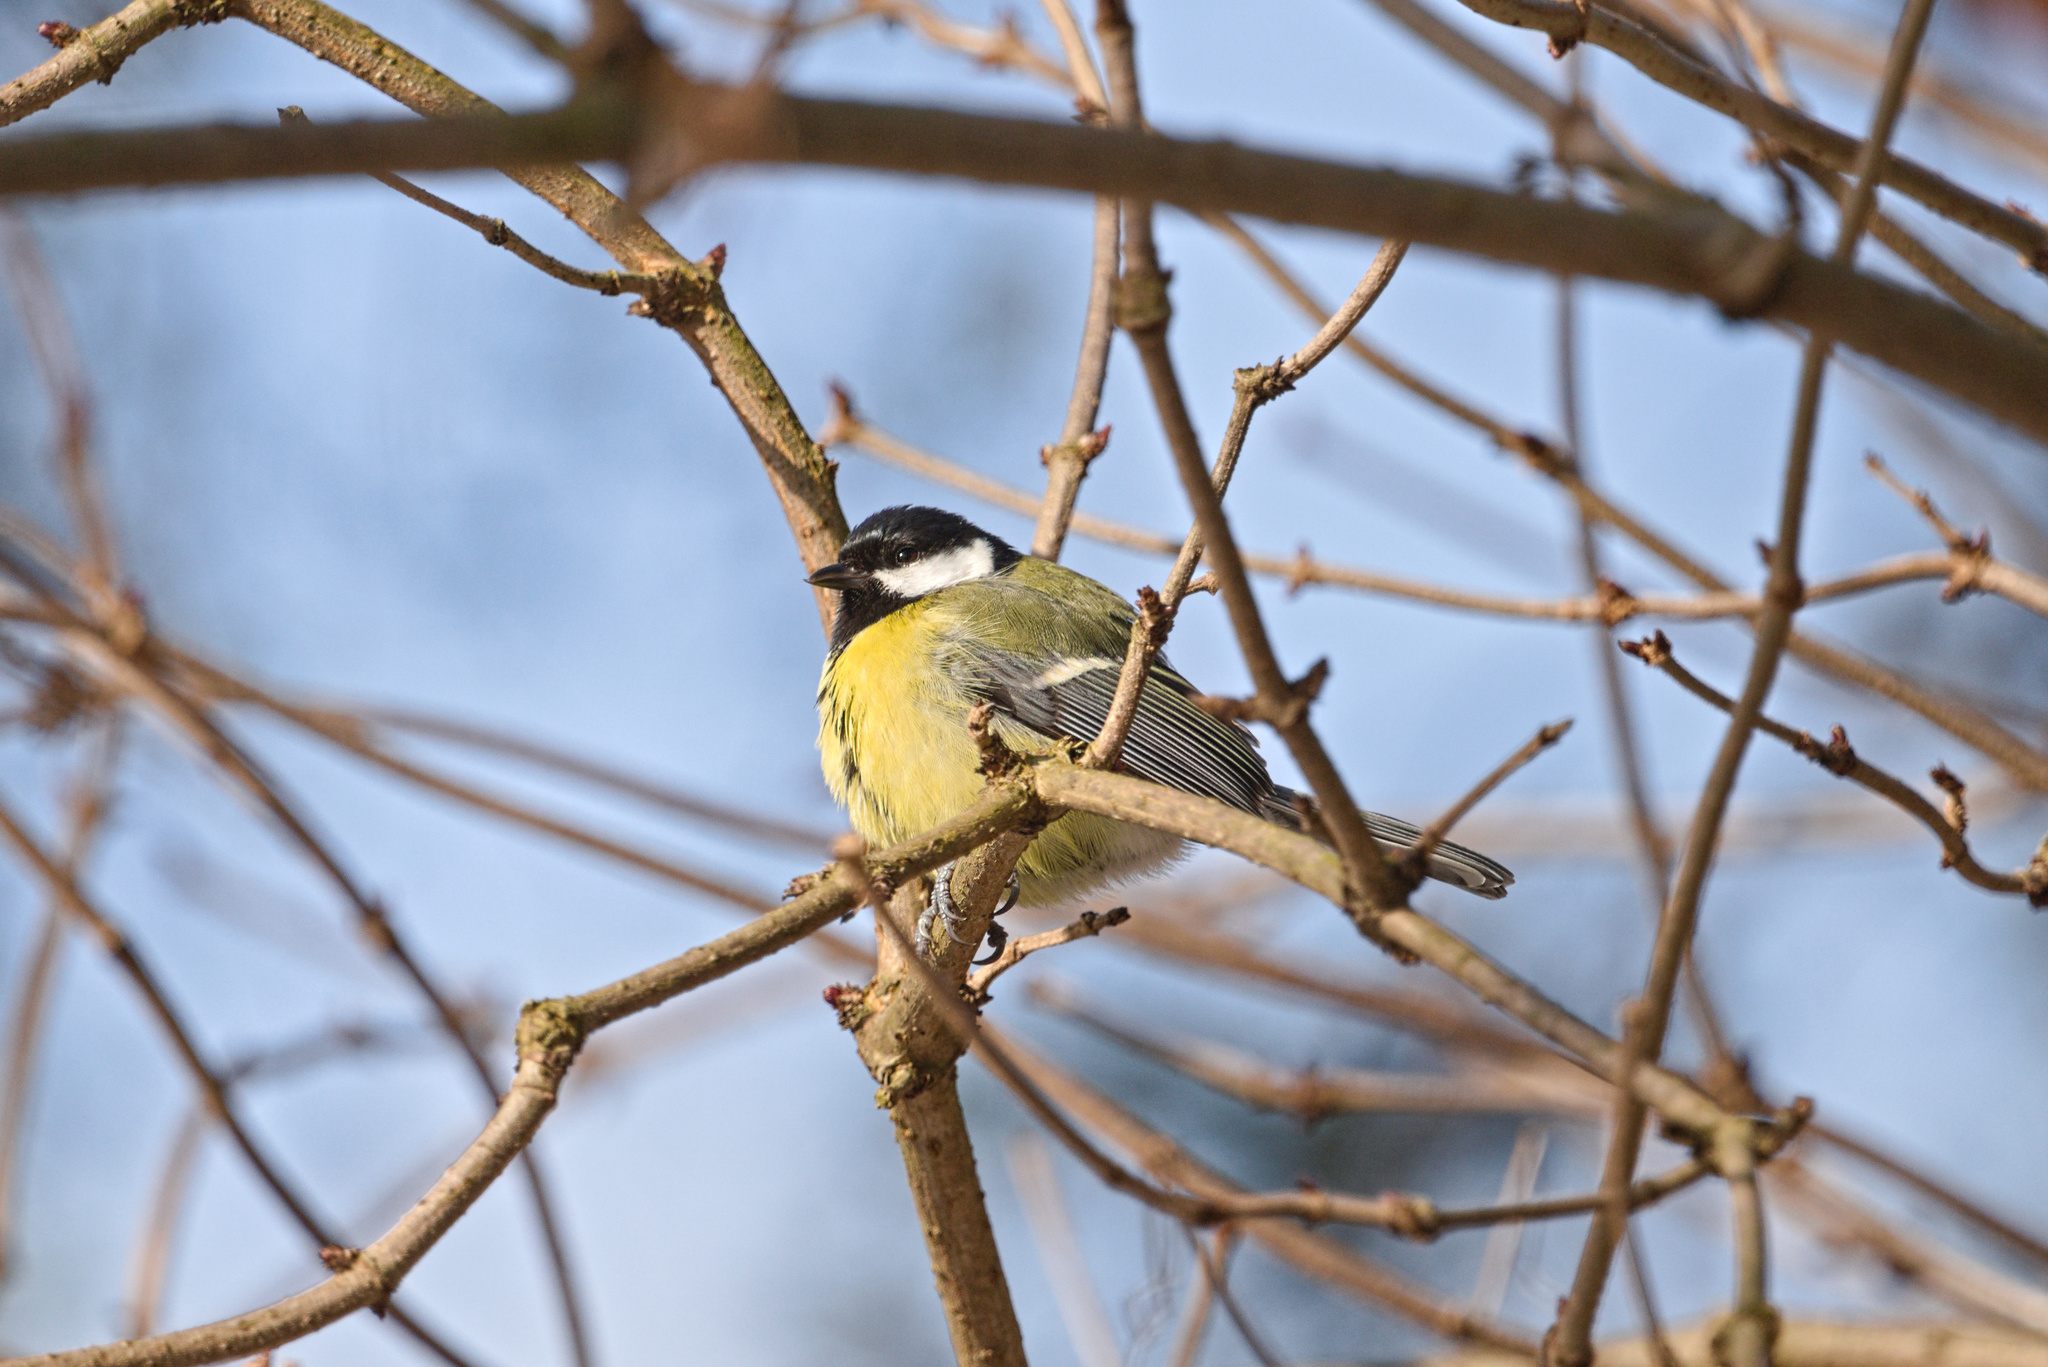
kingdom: Animalia
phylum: Chordata
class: Aves
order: Passeriformes
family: Paridae
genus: Parus
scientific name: Parus major
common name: Great tit
